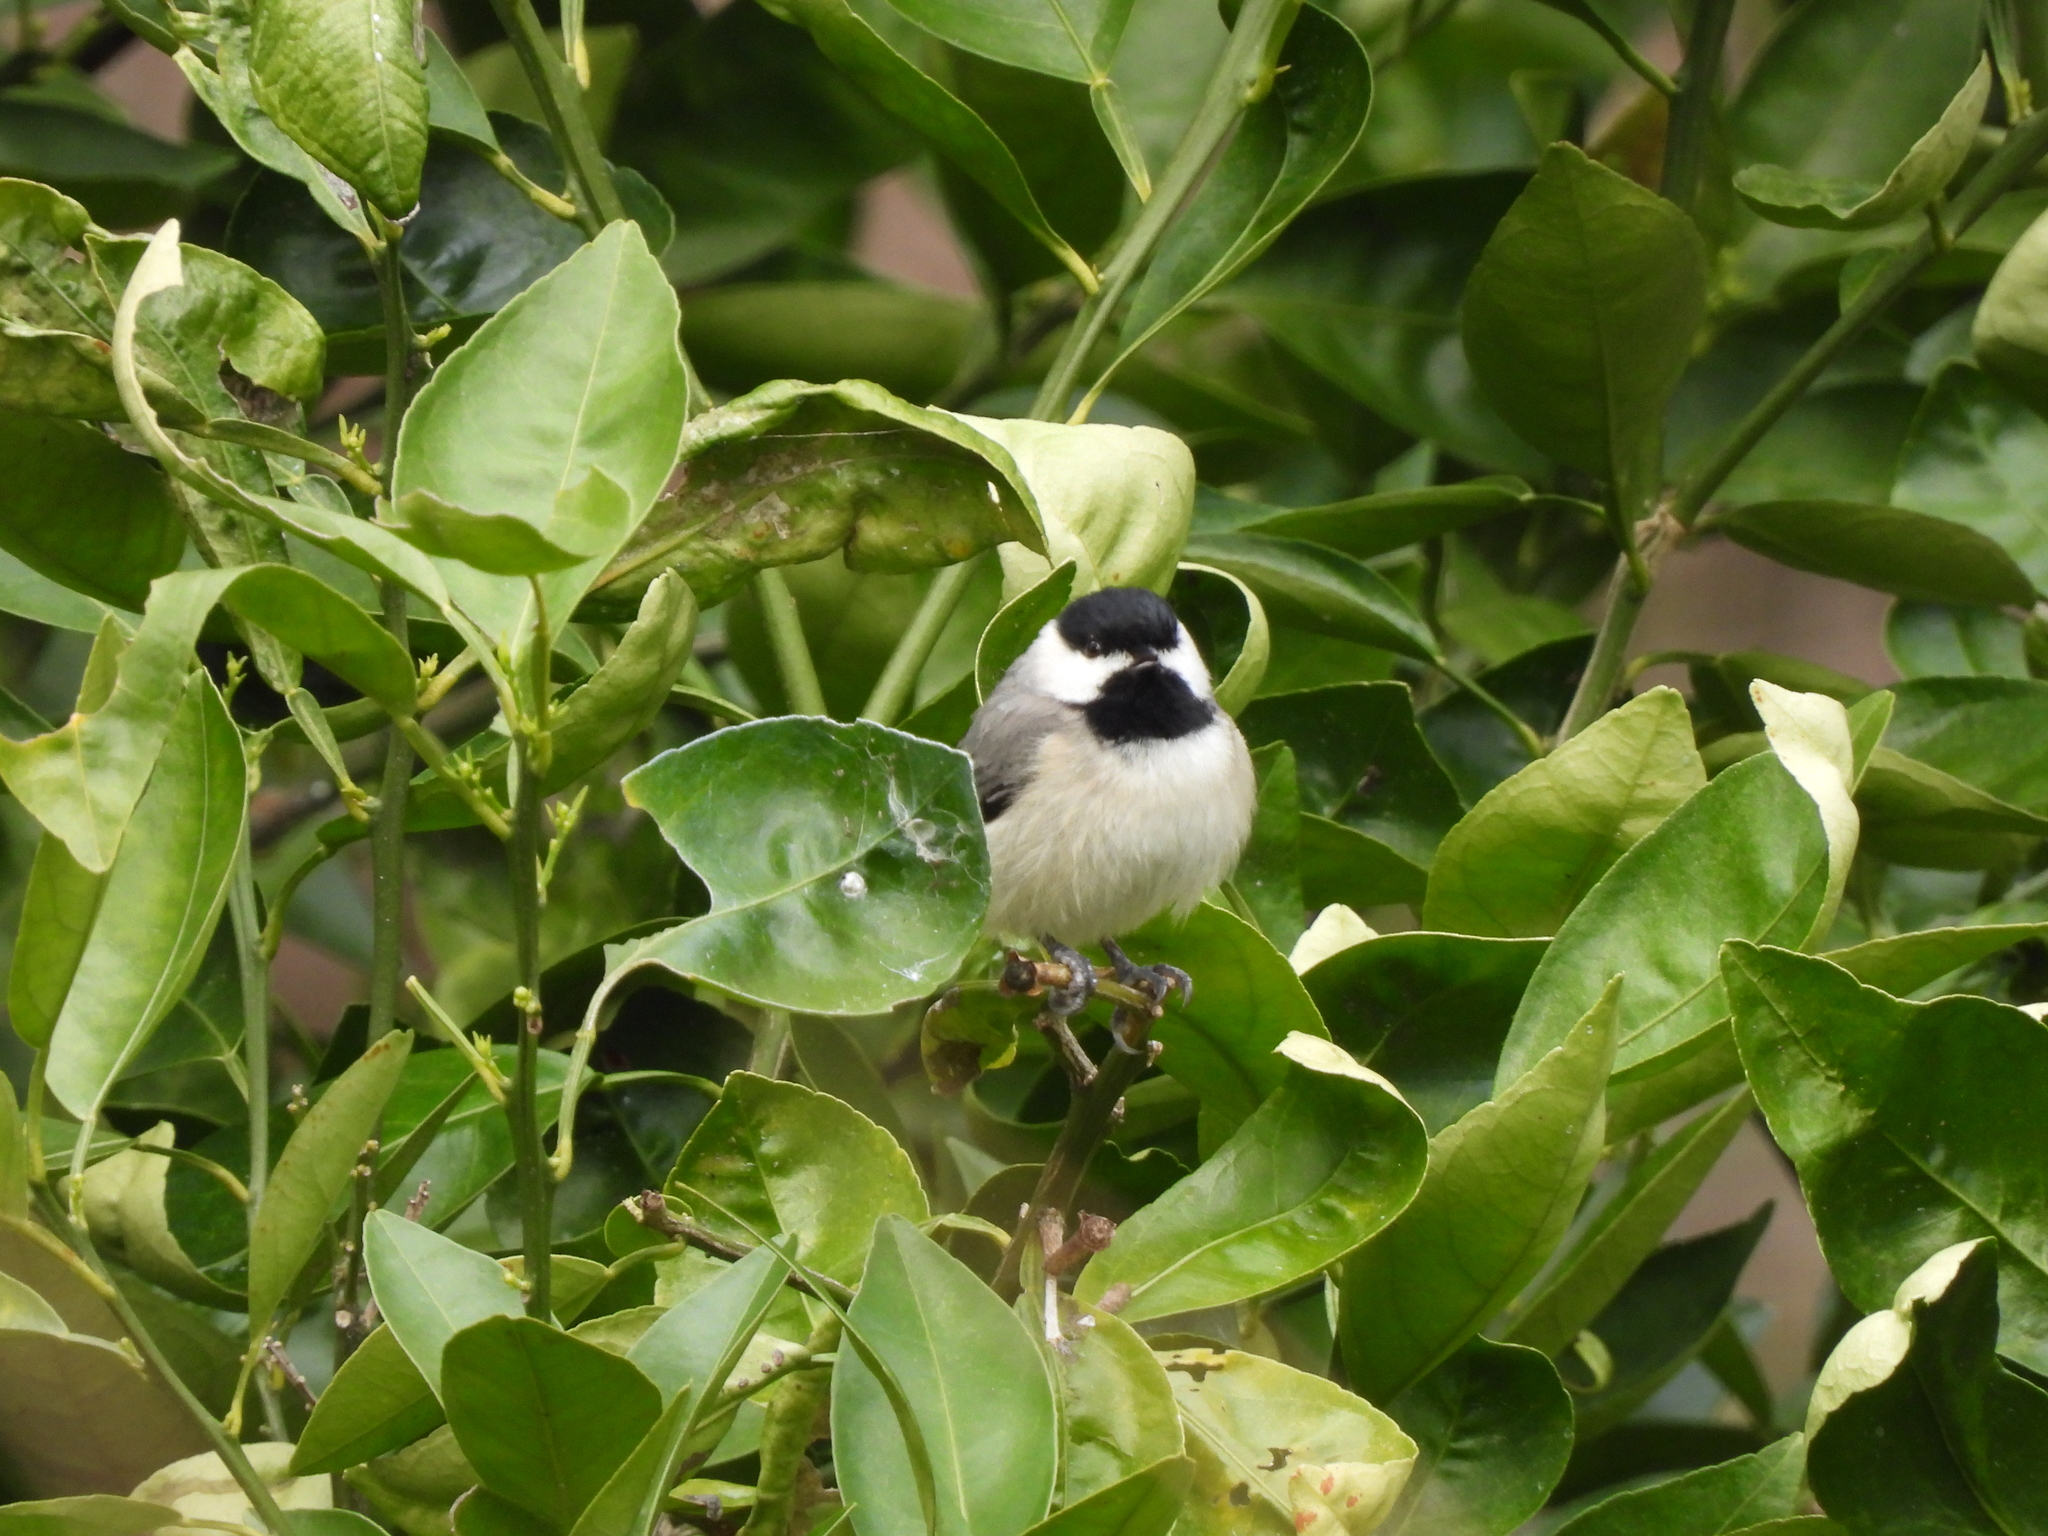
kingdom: Animalia
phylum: Chordata
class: Aves
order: Passeriformes
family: Paridae
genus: Poecile
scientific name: Poecile carolinensis
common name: Carolina chickadee
